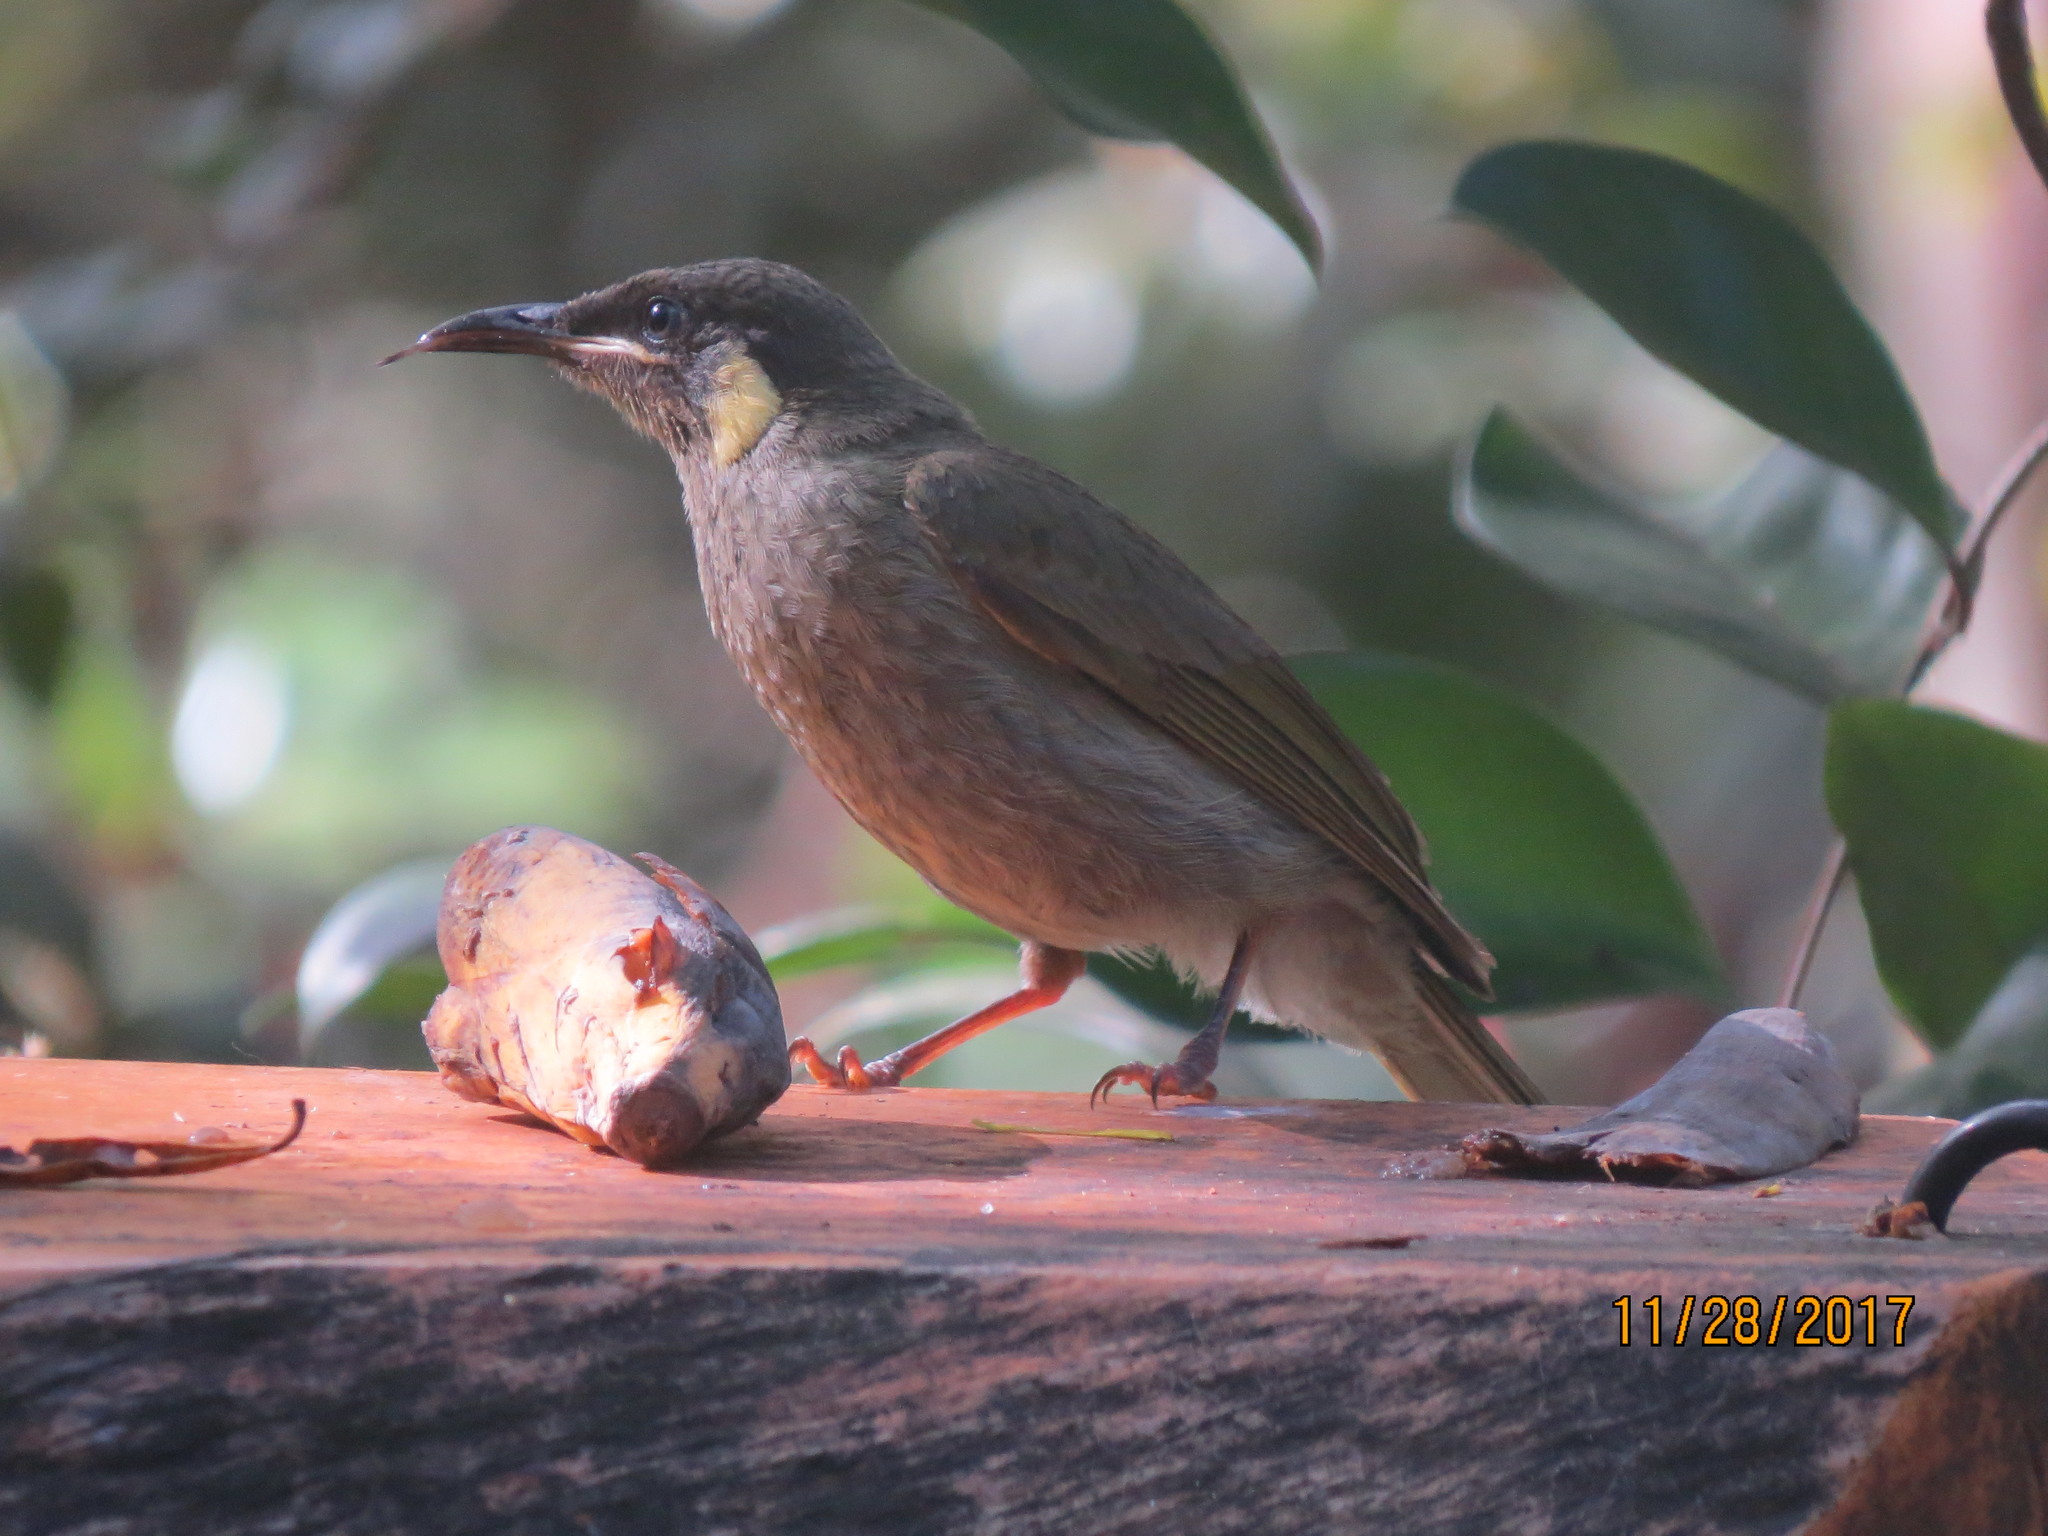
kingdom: Animalia
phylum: Chordata
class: Aves
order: Passeriformes
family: Meliphagidae
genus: Meliphaga
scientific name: Meliphaga lewinii
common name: Lewin's honeyeater
